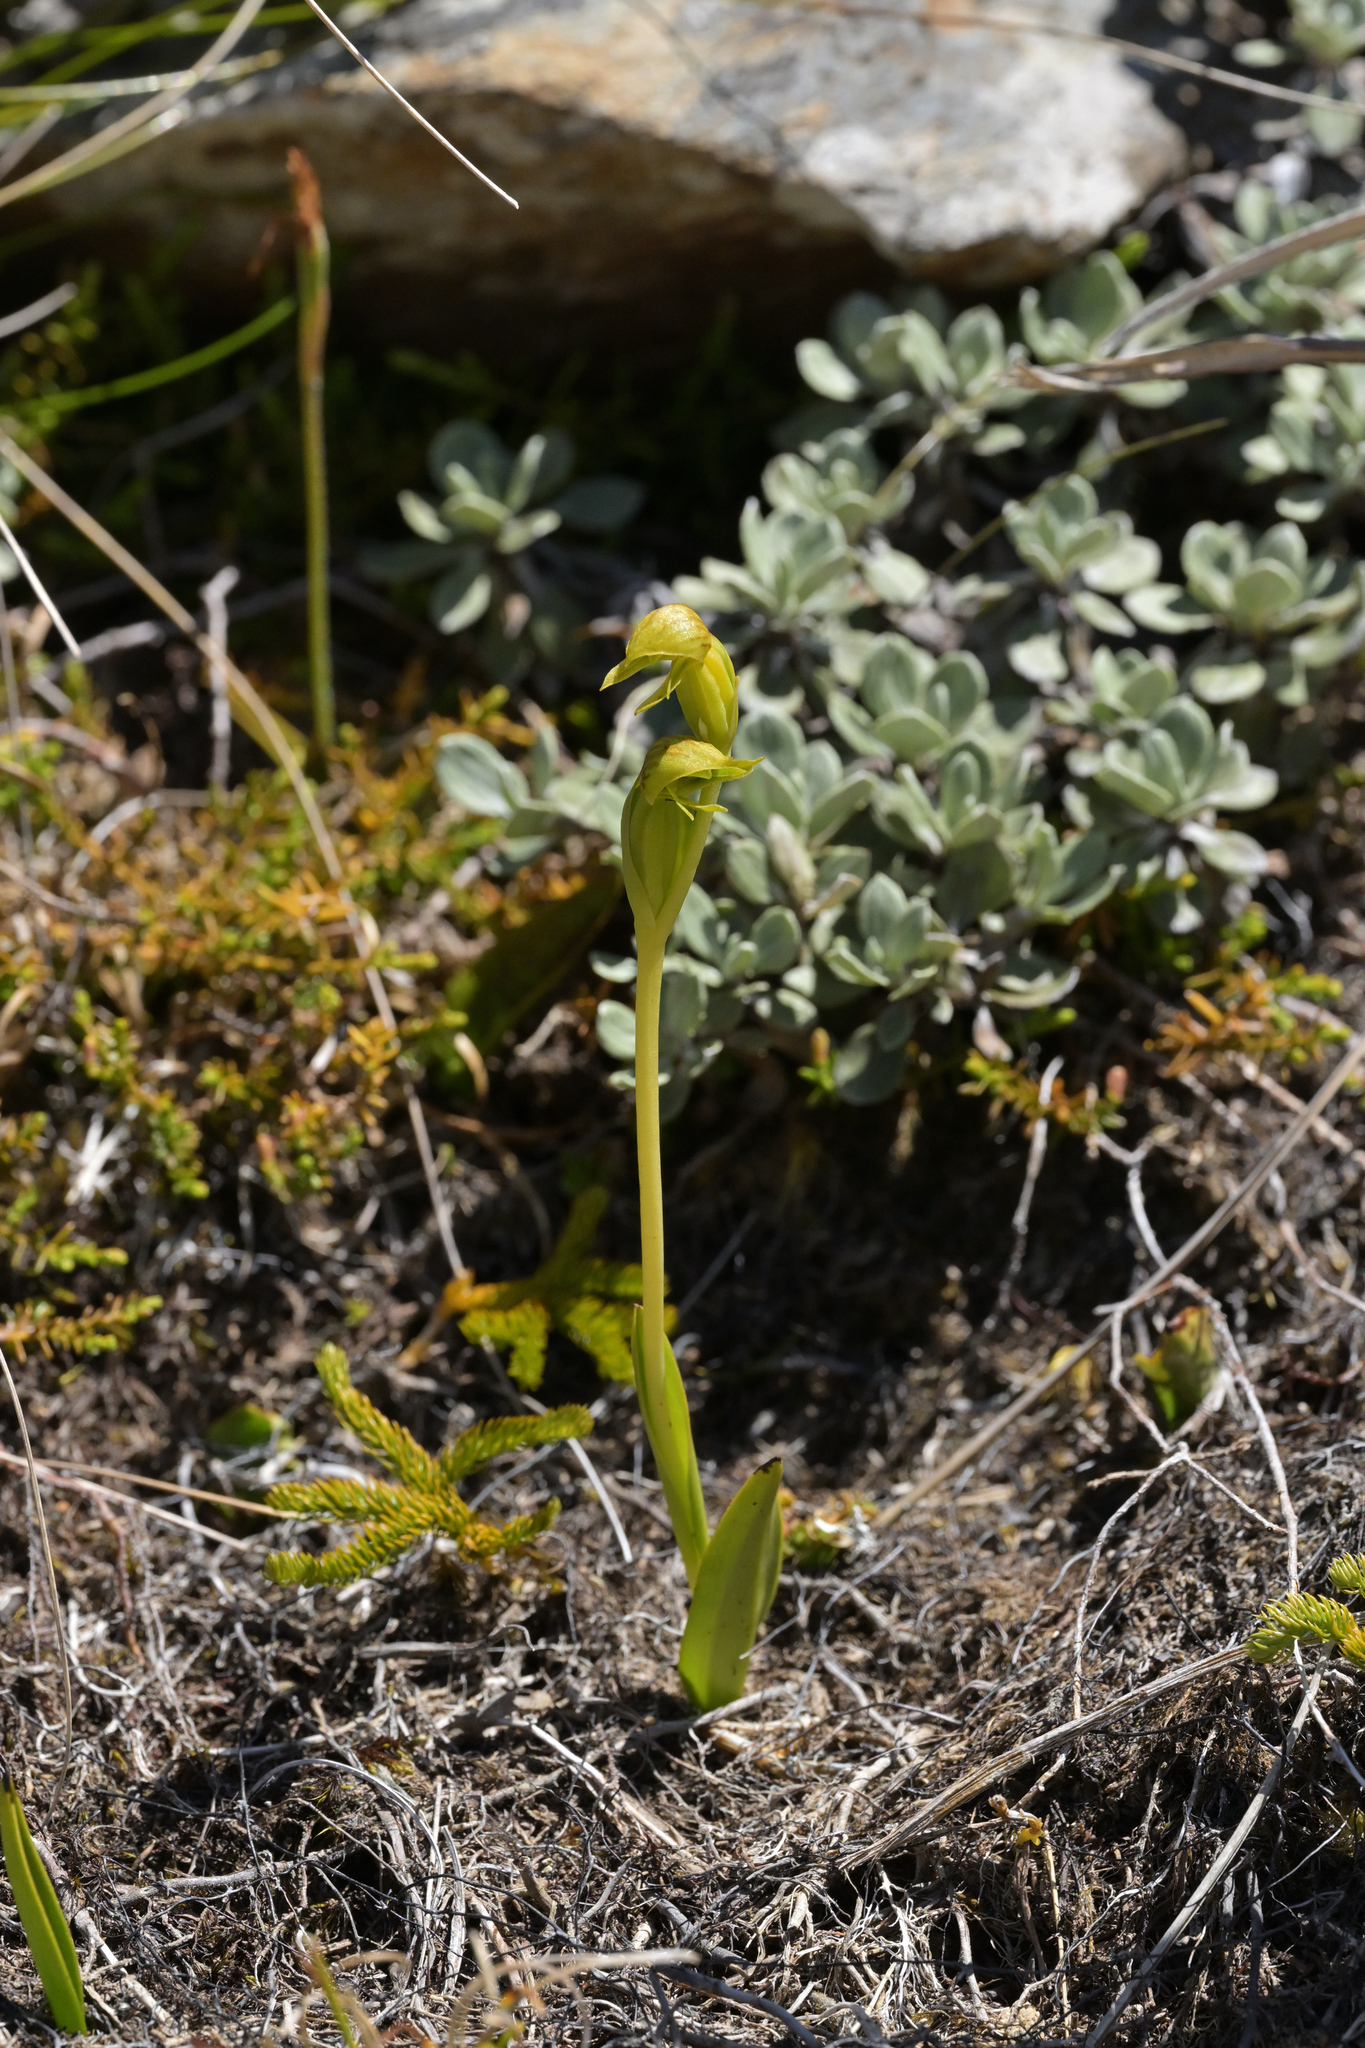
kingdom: Plantae
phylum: Tracheophyta
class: Liliopsida
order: Asparagales
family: Orchidaceae
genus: Waireia
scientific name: Waireia stenopetala
